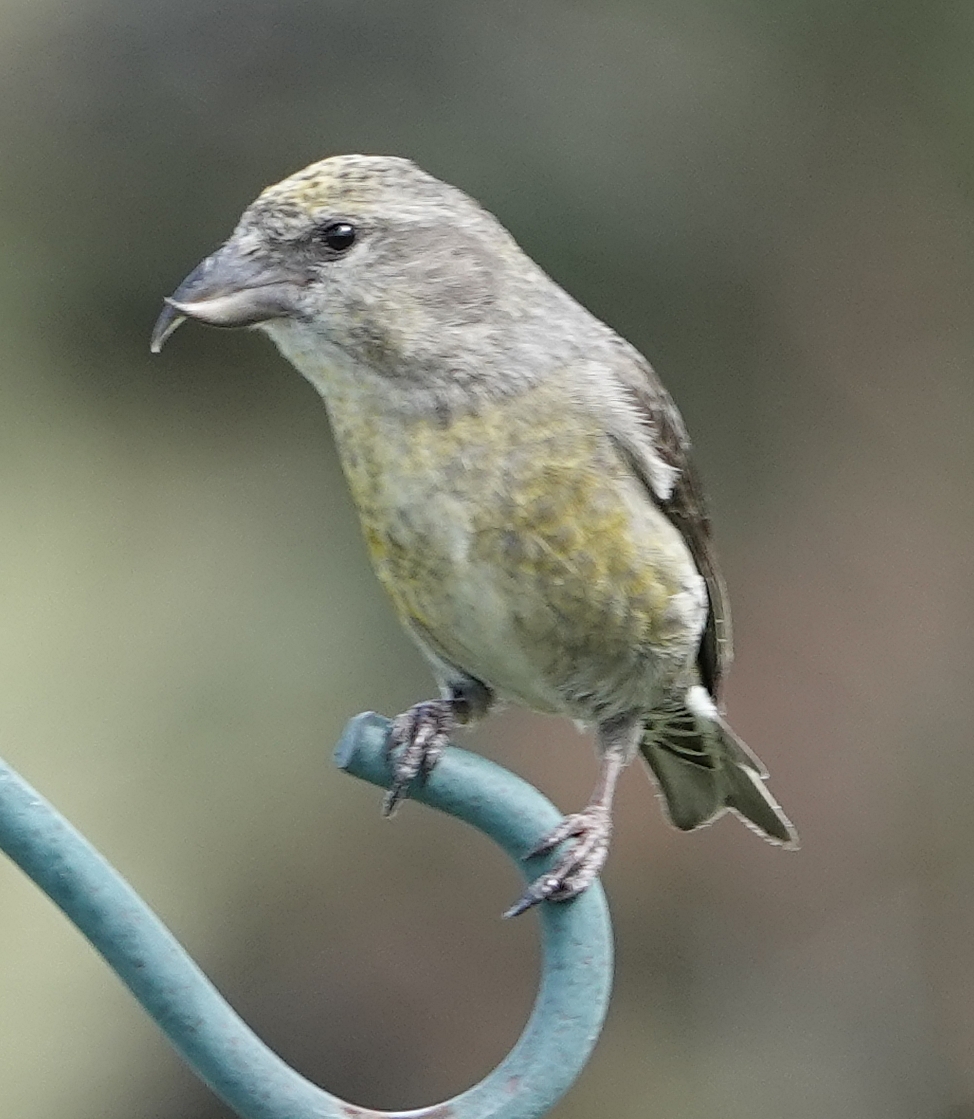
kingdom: Animalia
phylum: Chordata
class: Aves
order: Passeriformes
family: Fringillidae
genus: Loxia
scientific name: Loxia curvirostra
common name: Red crossbill
